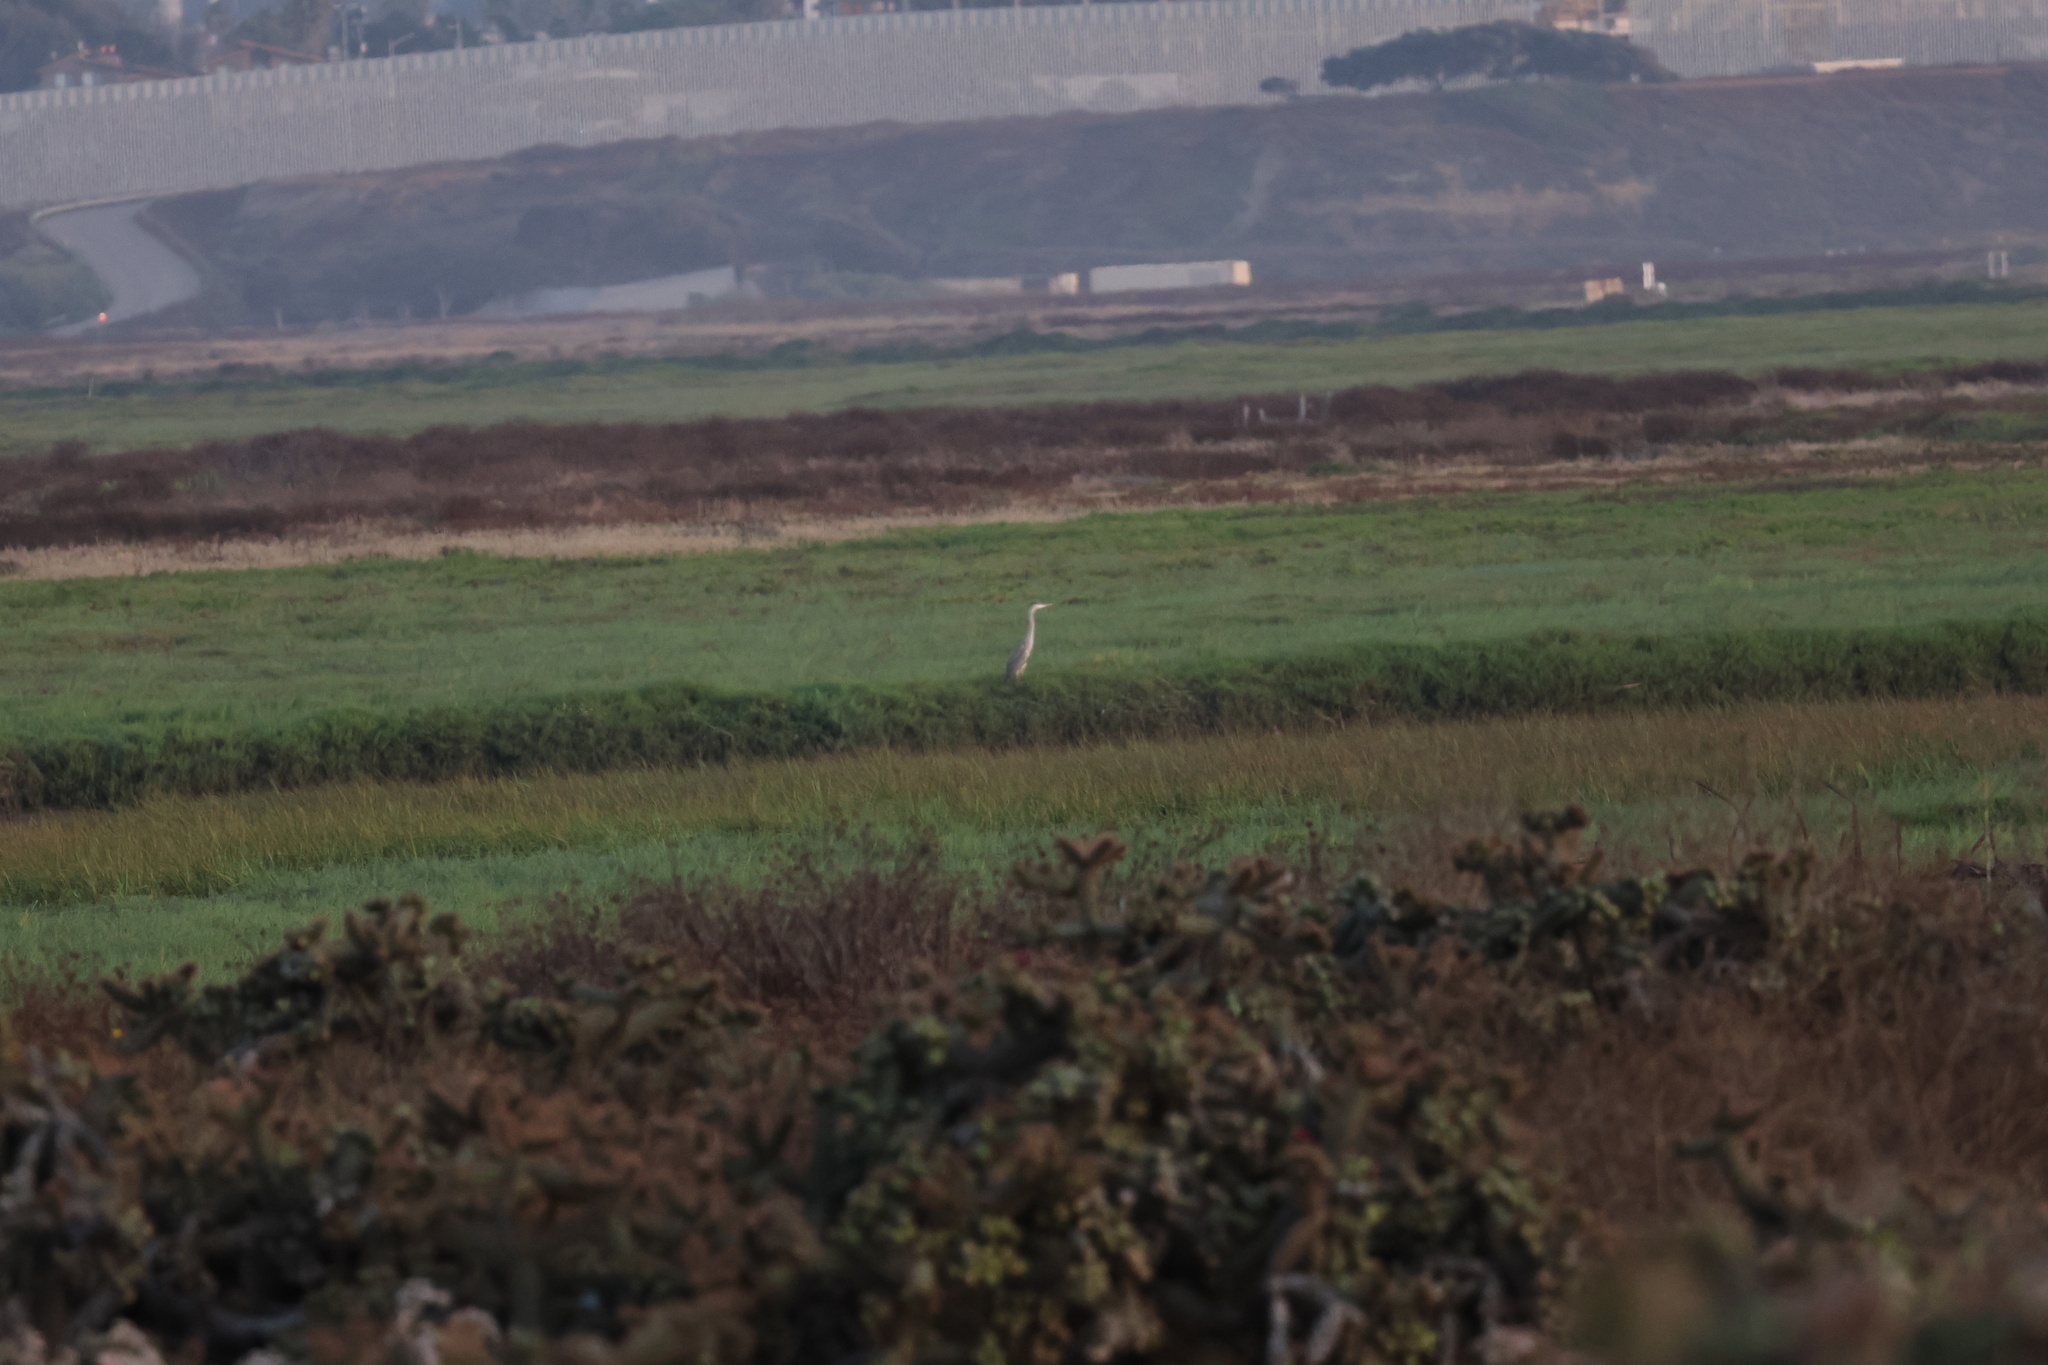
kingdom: Animalia
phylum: Chordata
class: Aves
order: Pelecaniformes
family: Ardeidae
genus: Ardea
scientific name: Ardea herodias
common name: Great blue heron
